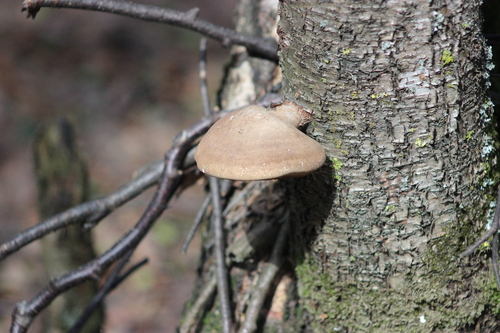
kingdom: Fungi
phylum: Basidiomycota
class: Agaricomycetes
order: Polyporales
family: Fomitopsidaceae
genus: Fomitopsis
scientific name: Fomitopsis betulina
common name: Birch polypore
